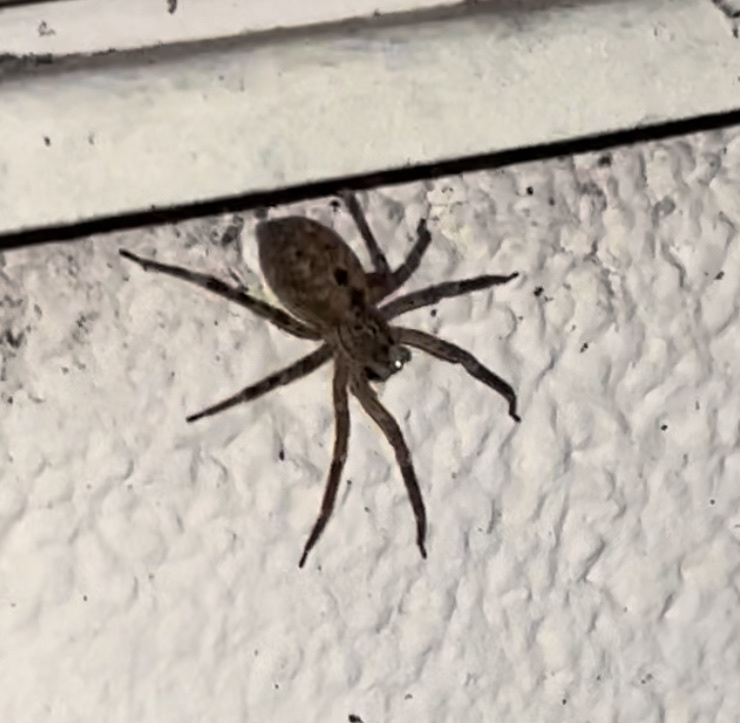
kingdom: Animalia
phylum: Arthropoda
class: Arachnida
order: Araneae
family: Zoropsidae
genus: Zoropsis
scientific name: Zoropsis spinimana
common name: Zoropsid spider
